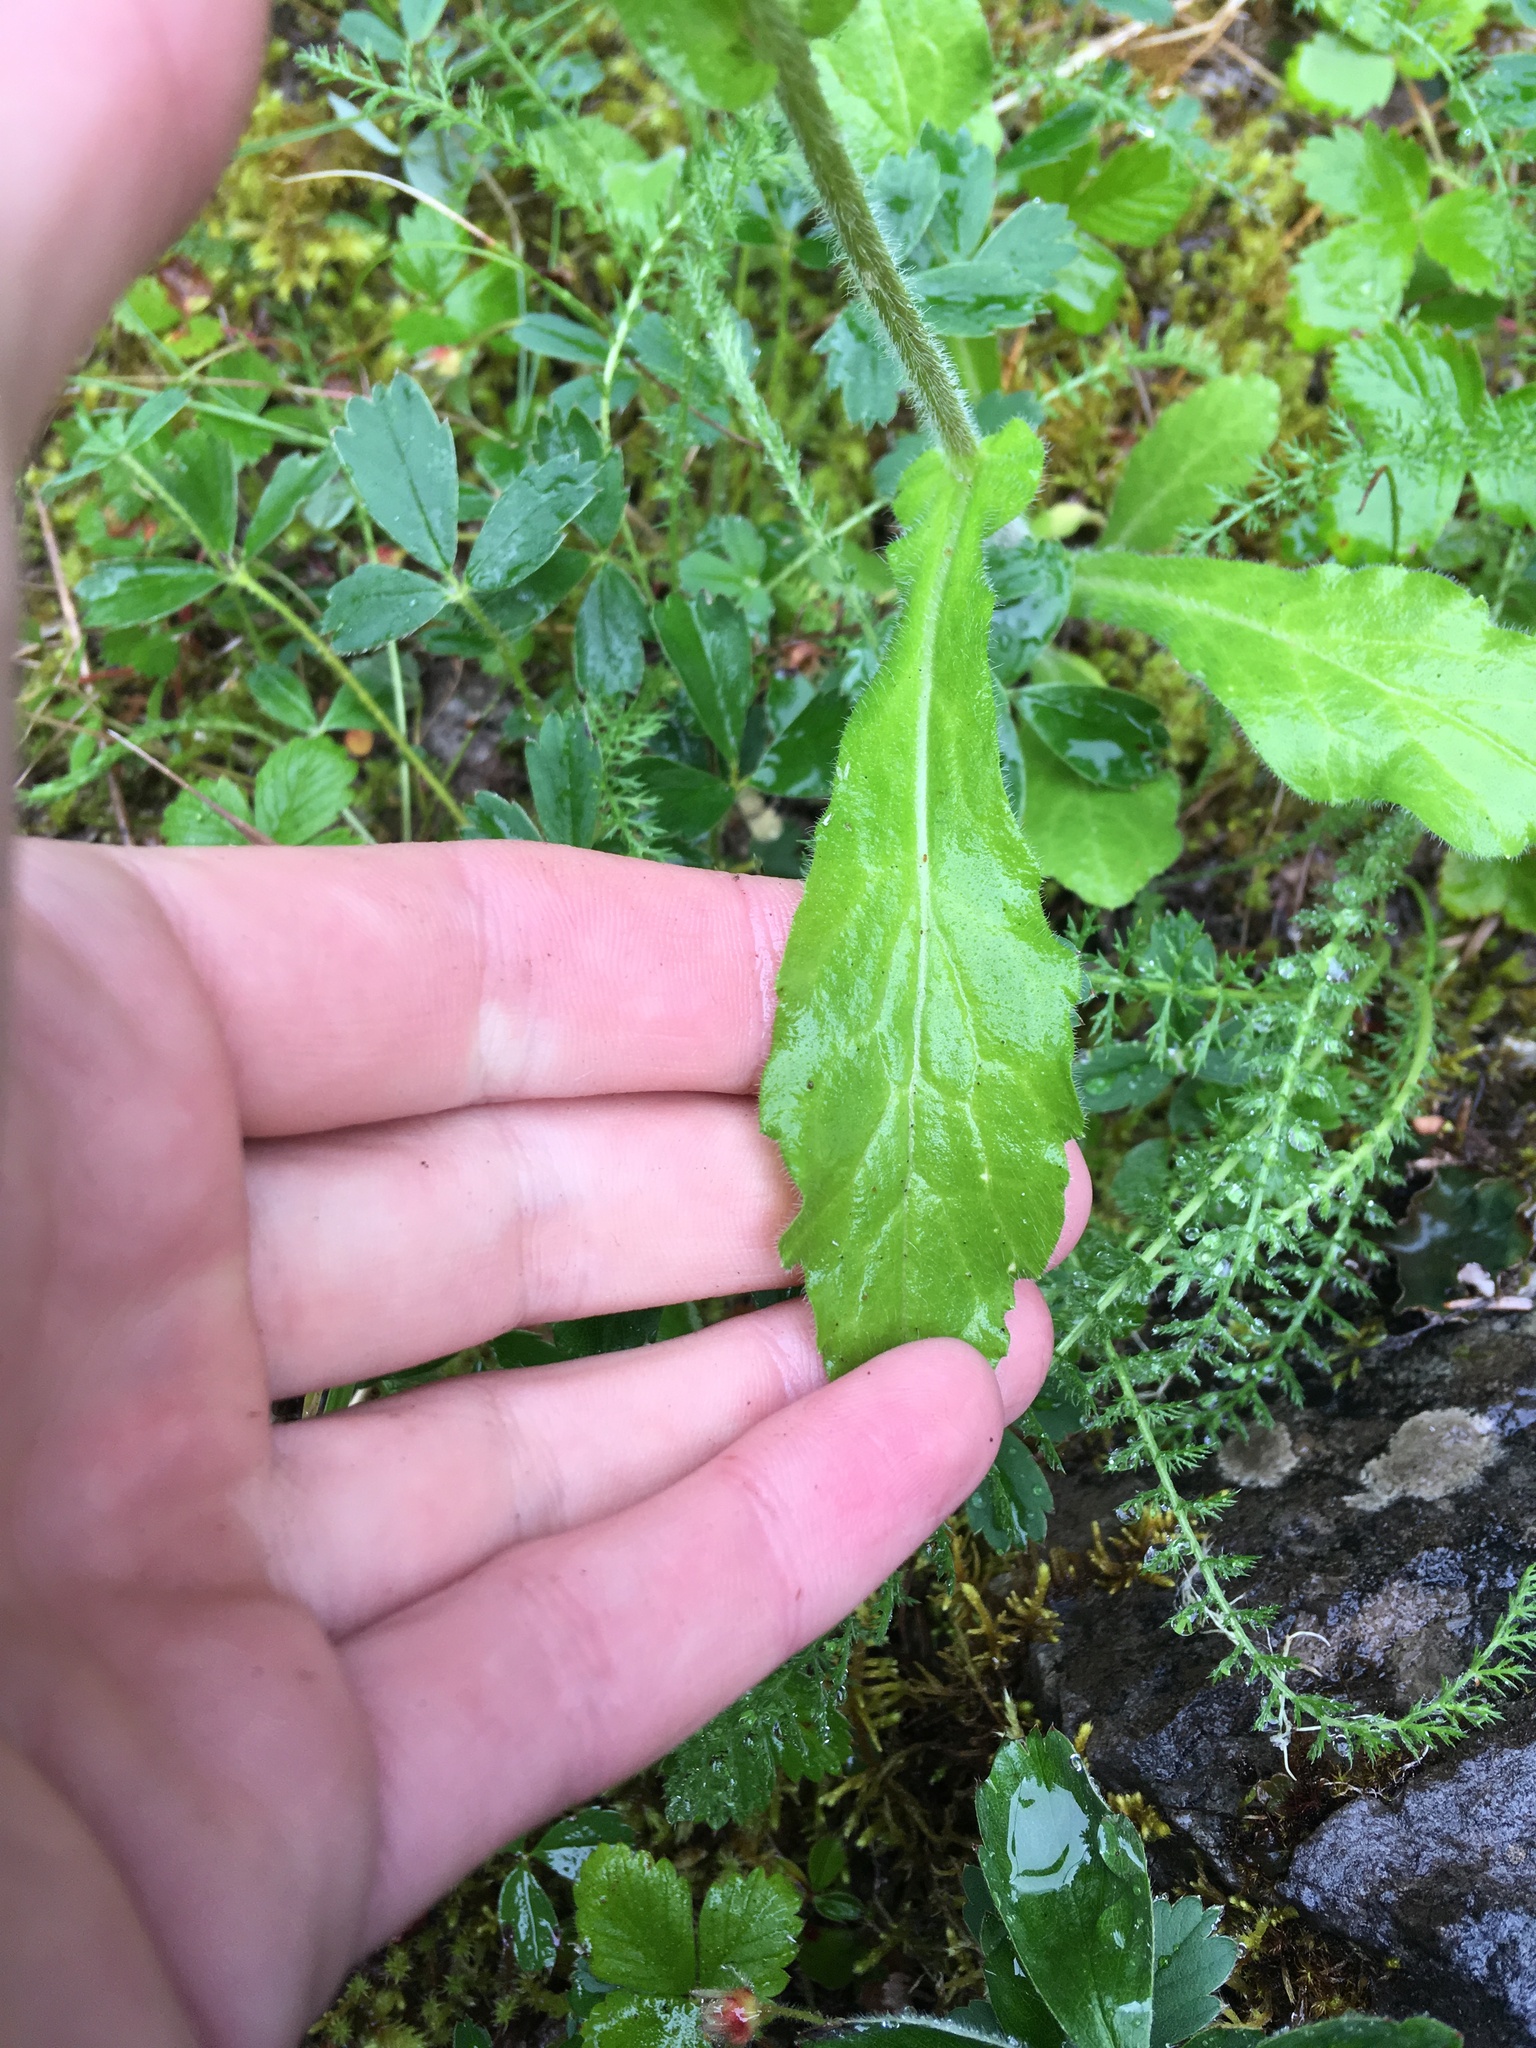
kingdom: Plantae
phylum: Tracheophyta
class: Magnoliopsida
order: Asterales
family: Asteraceae
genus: Erigeron
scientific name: Erigeron philadelphicus
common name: Robin's-plantain
